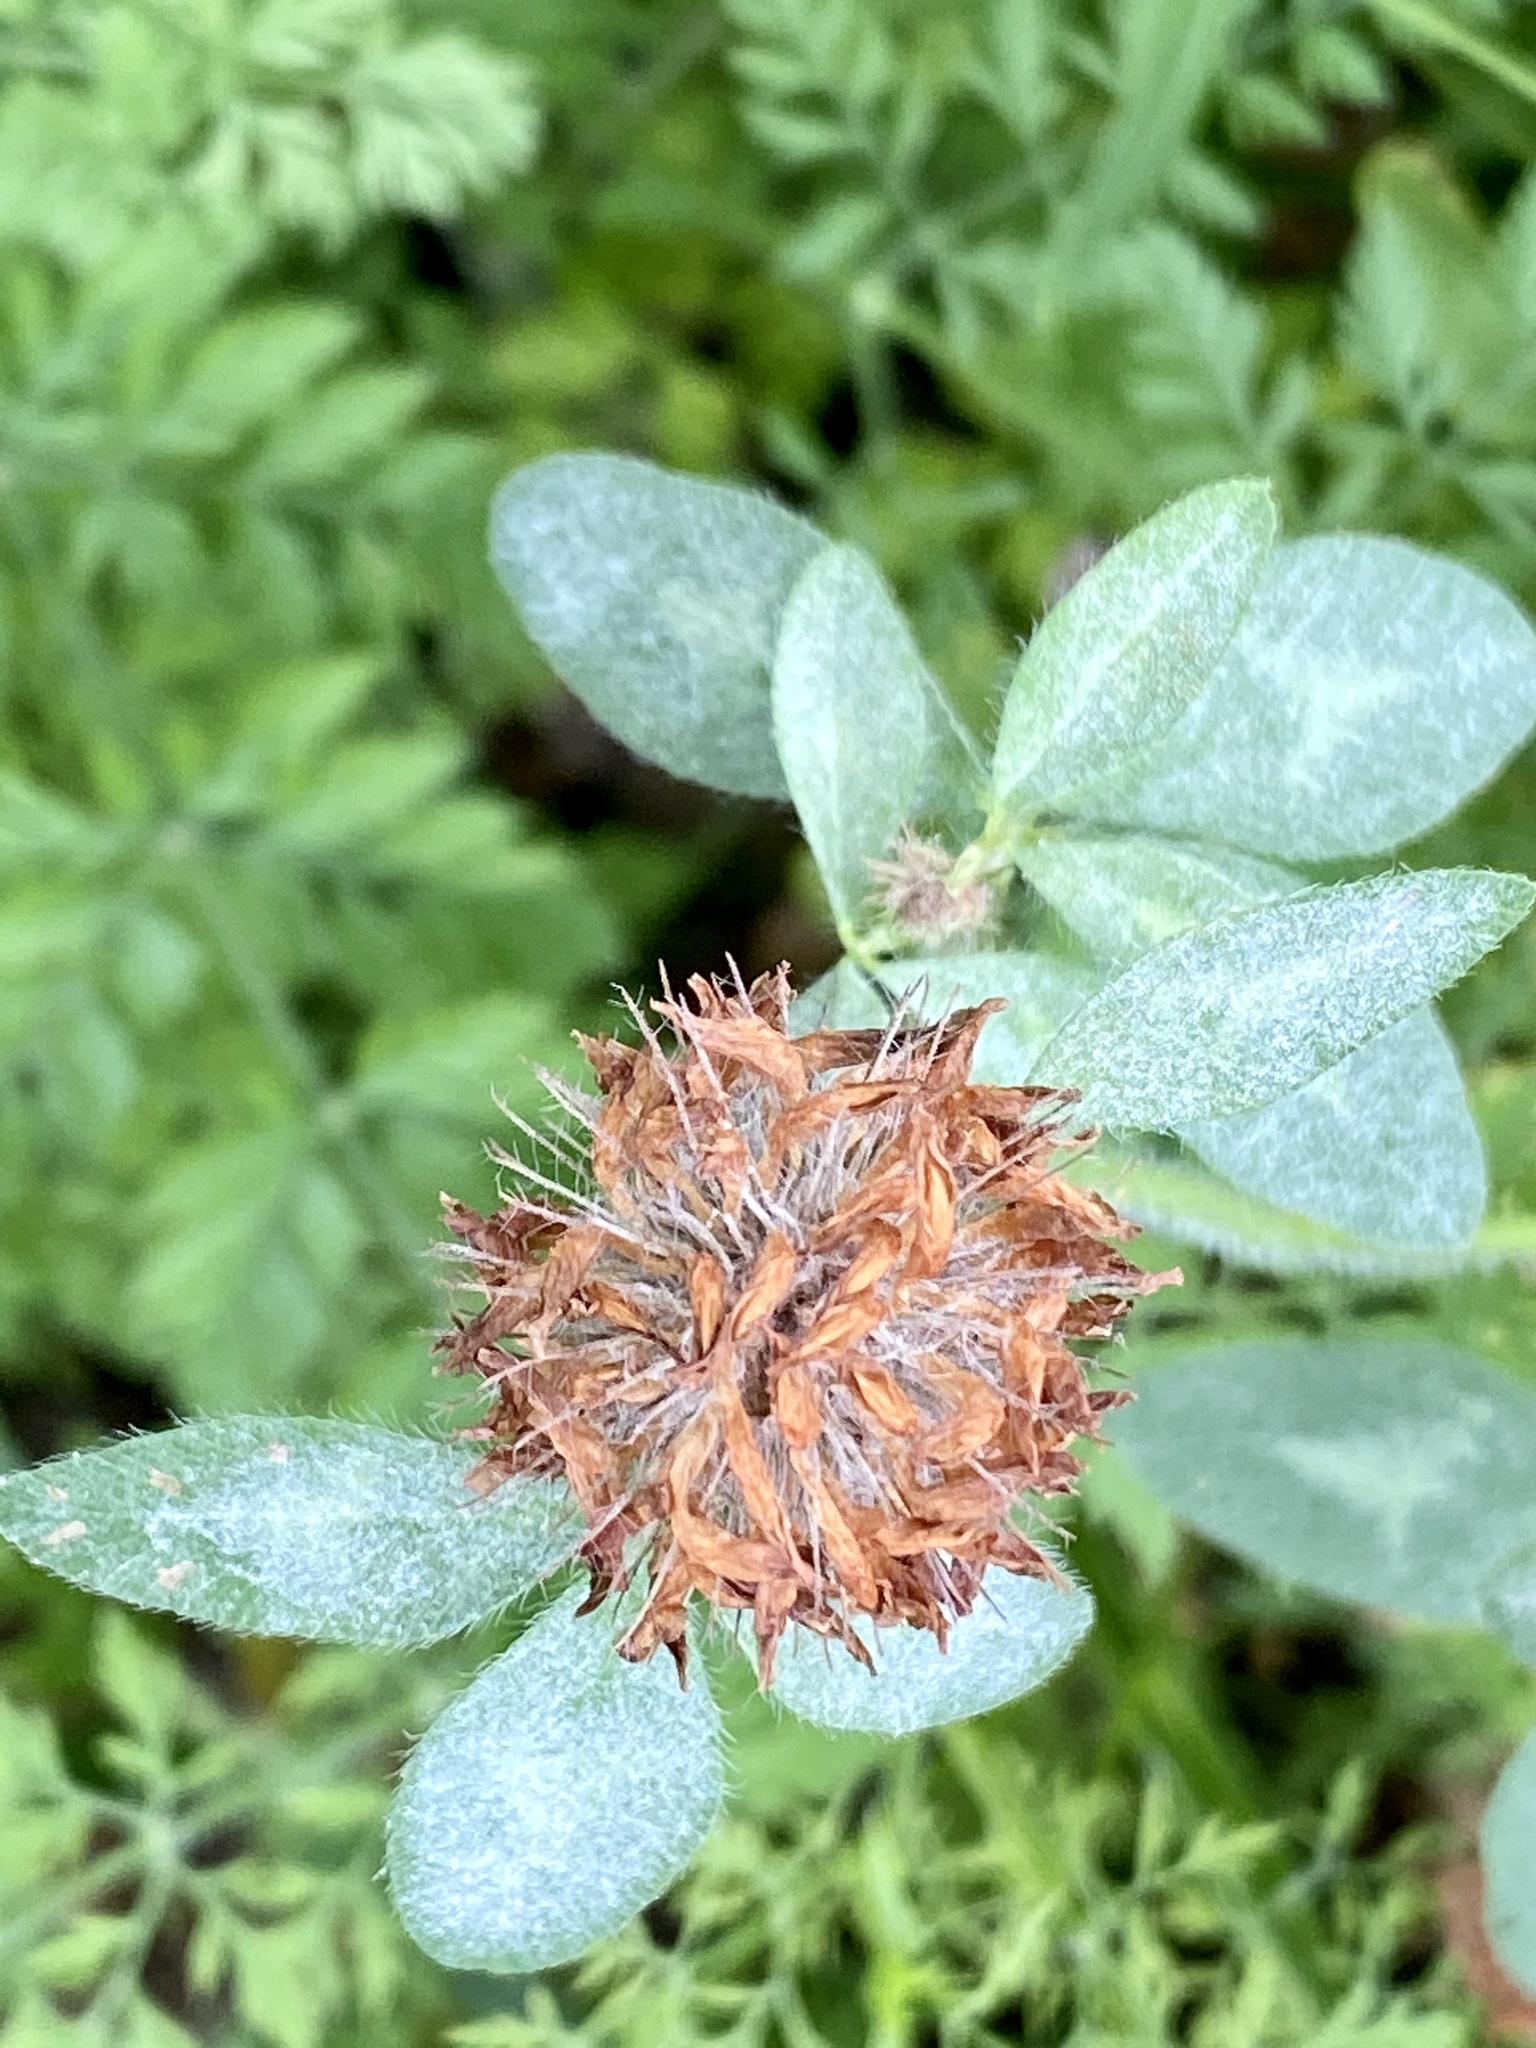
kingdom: Plantae
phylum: Tracheophyta
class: Magnoliopsida
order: Fabales
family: Fabaceae
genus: Trifolium
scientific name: Trifolium pratense
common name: Red clover
